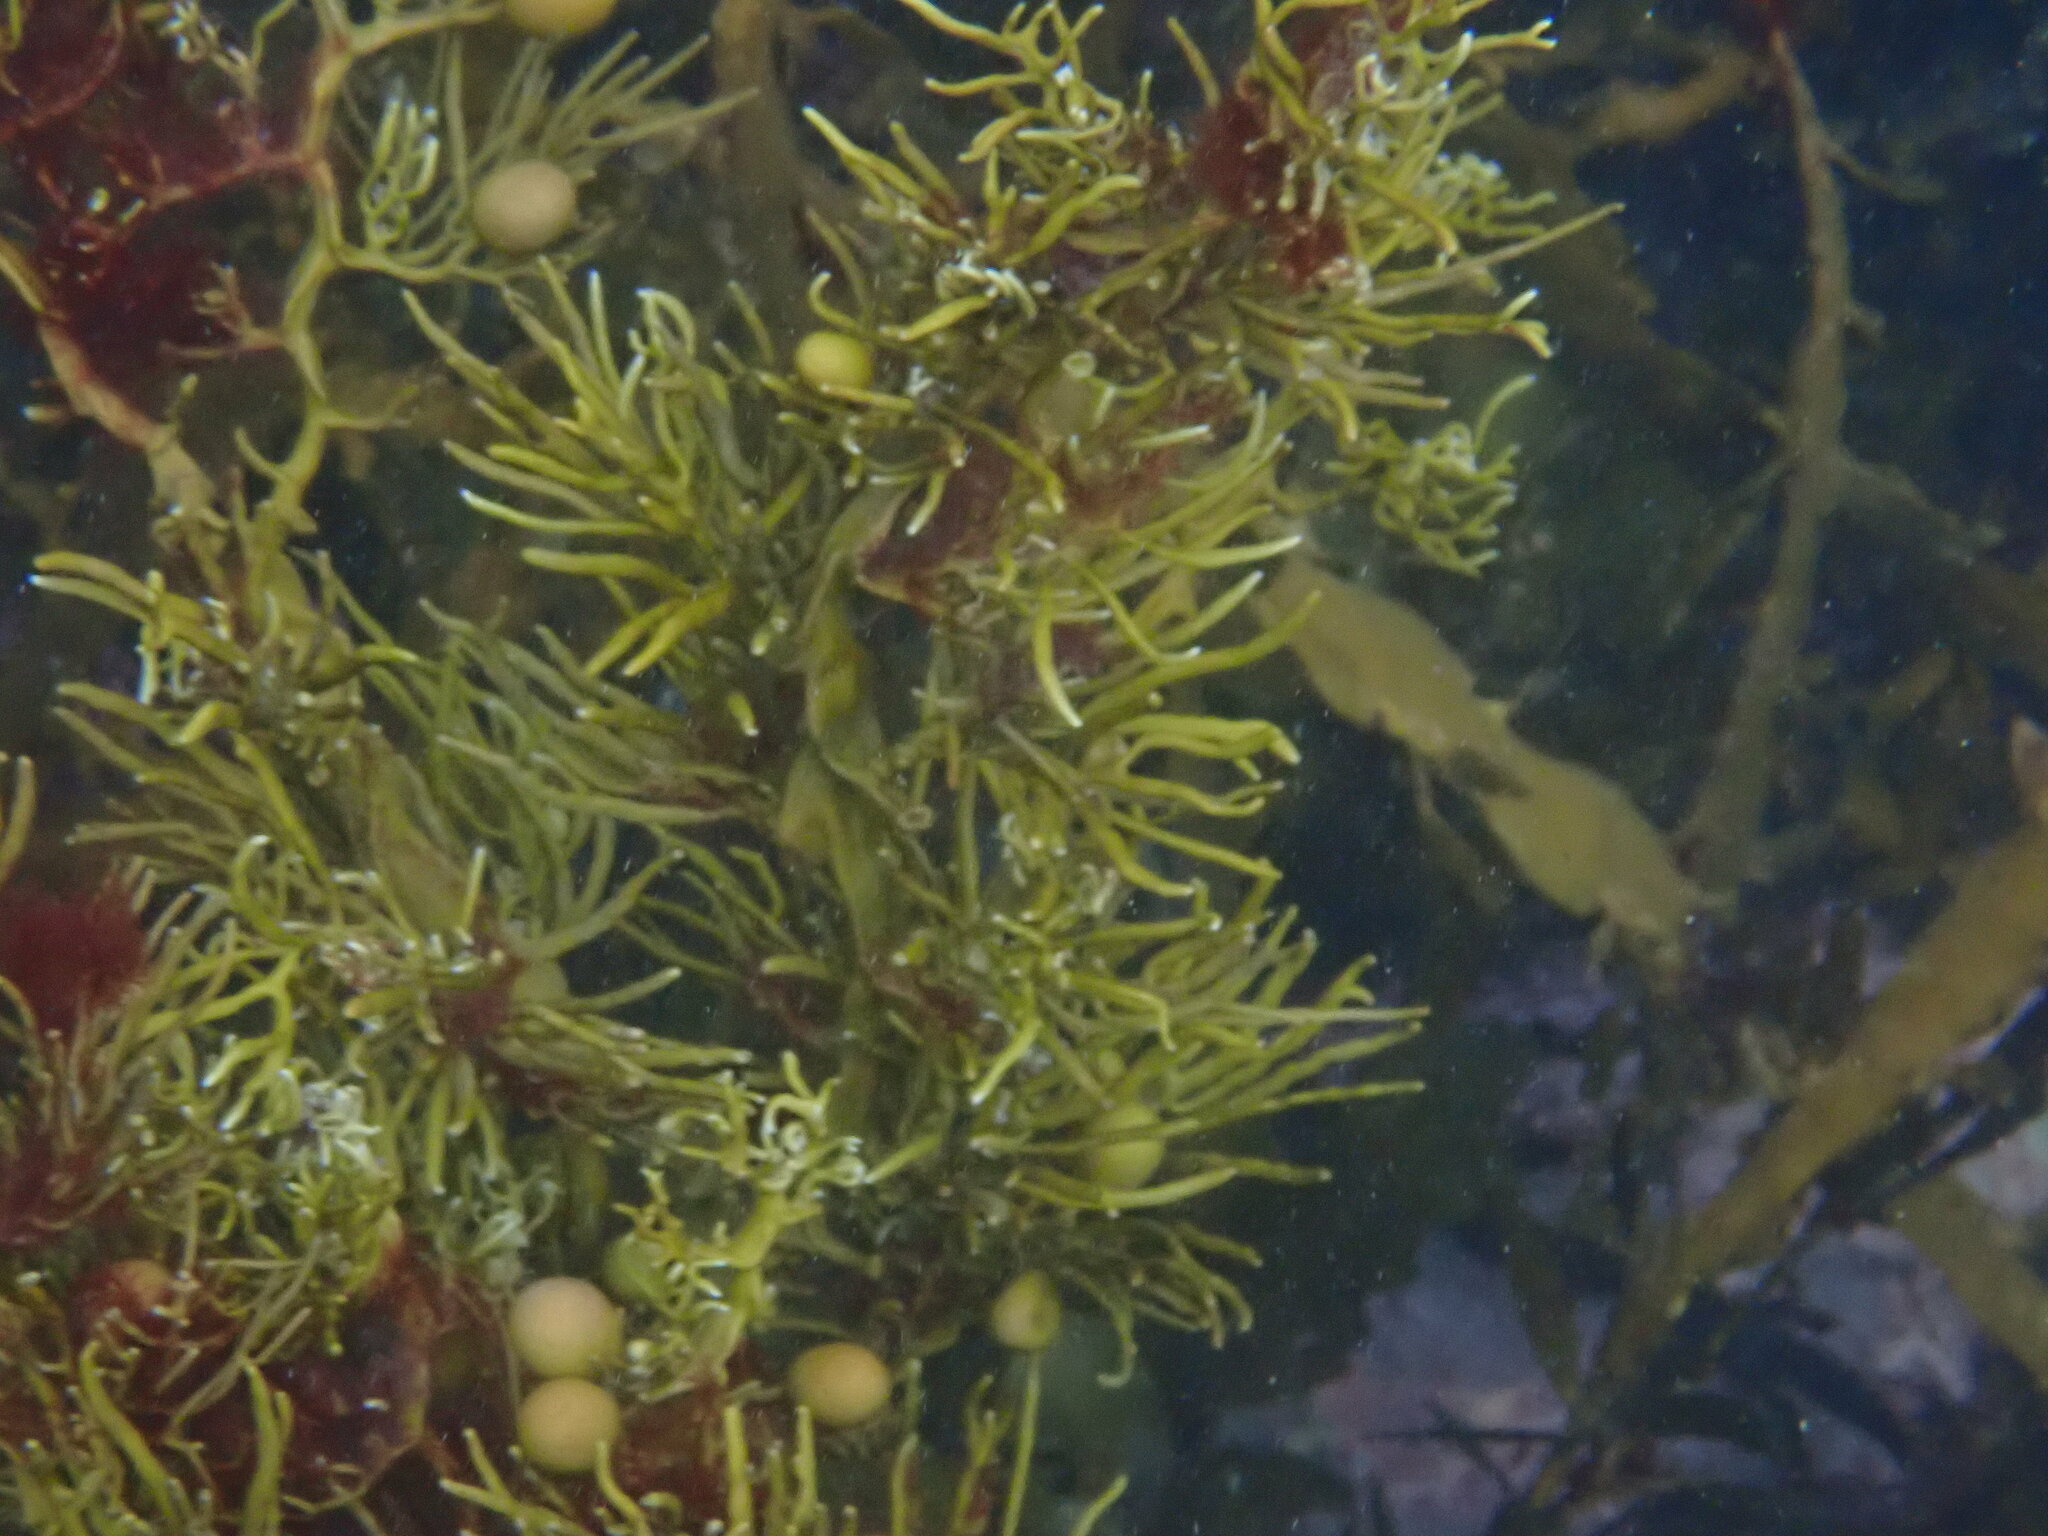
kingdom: Chromista
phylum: Ochrophyta
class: Phaeophyceae
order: Fucales
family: Sargassaceae
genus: Cystophora
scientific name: Cystophora retroflexa
